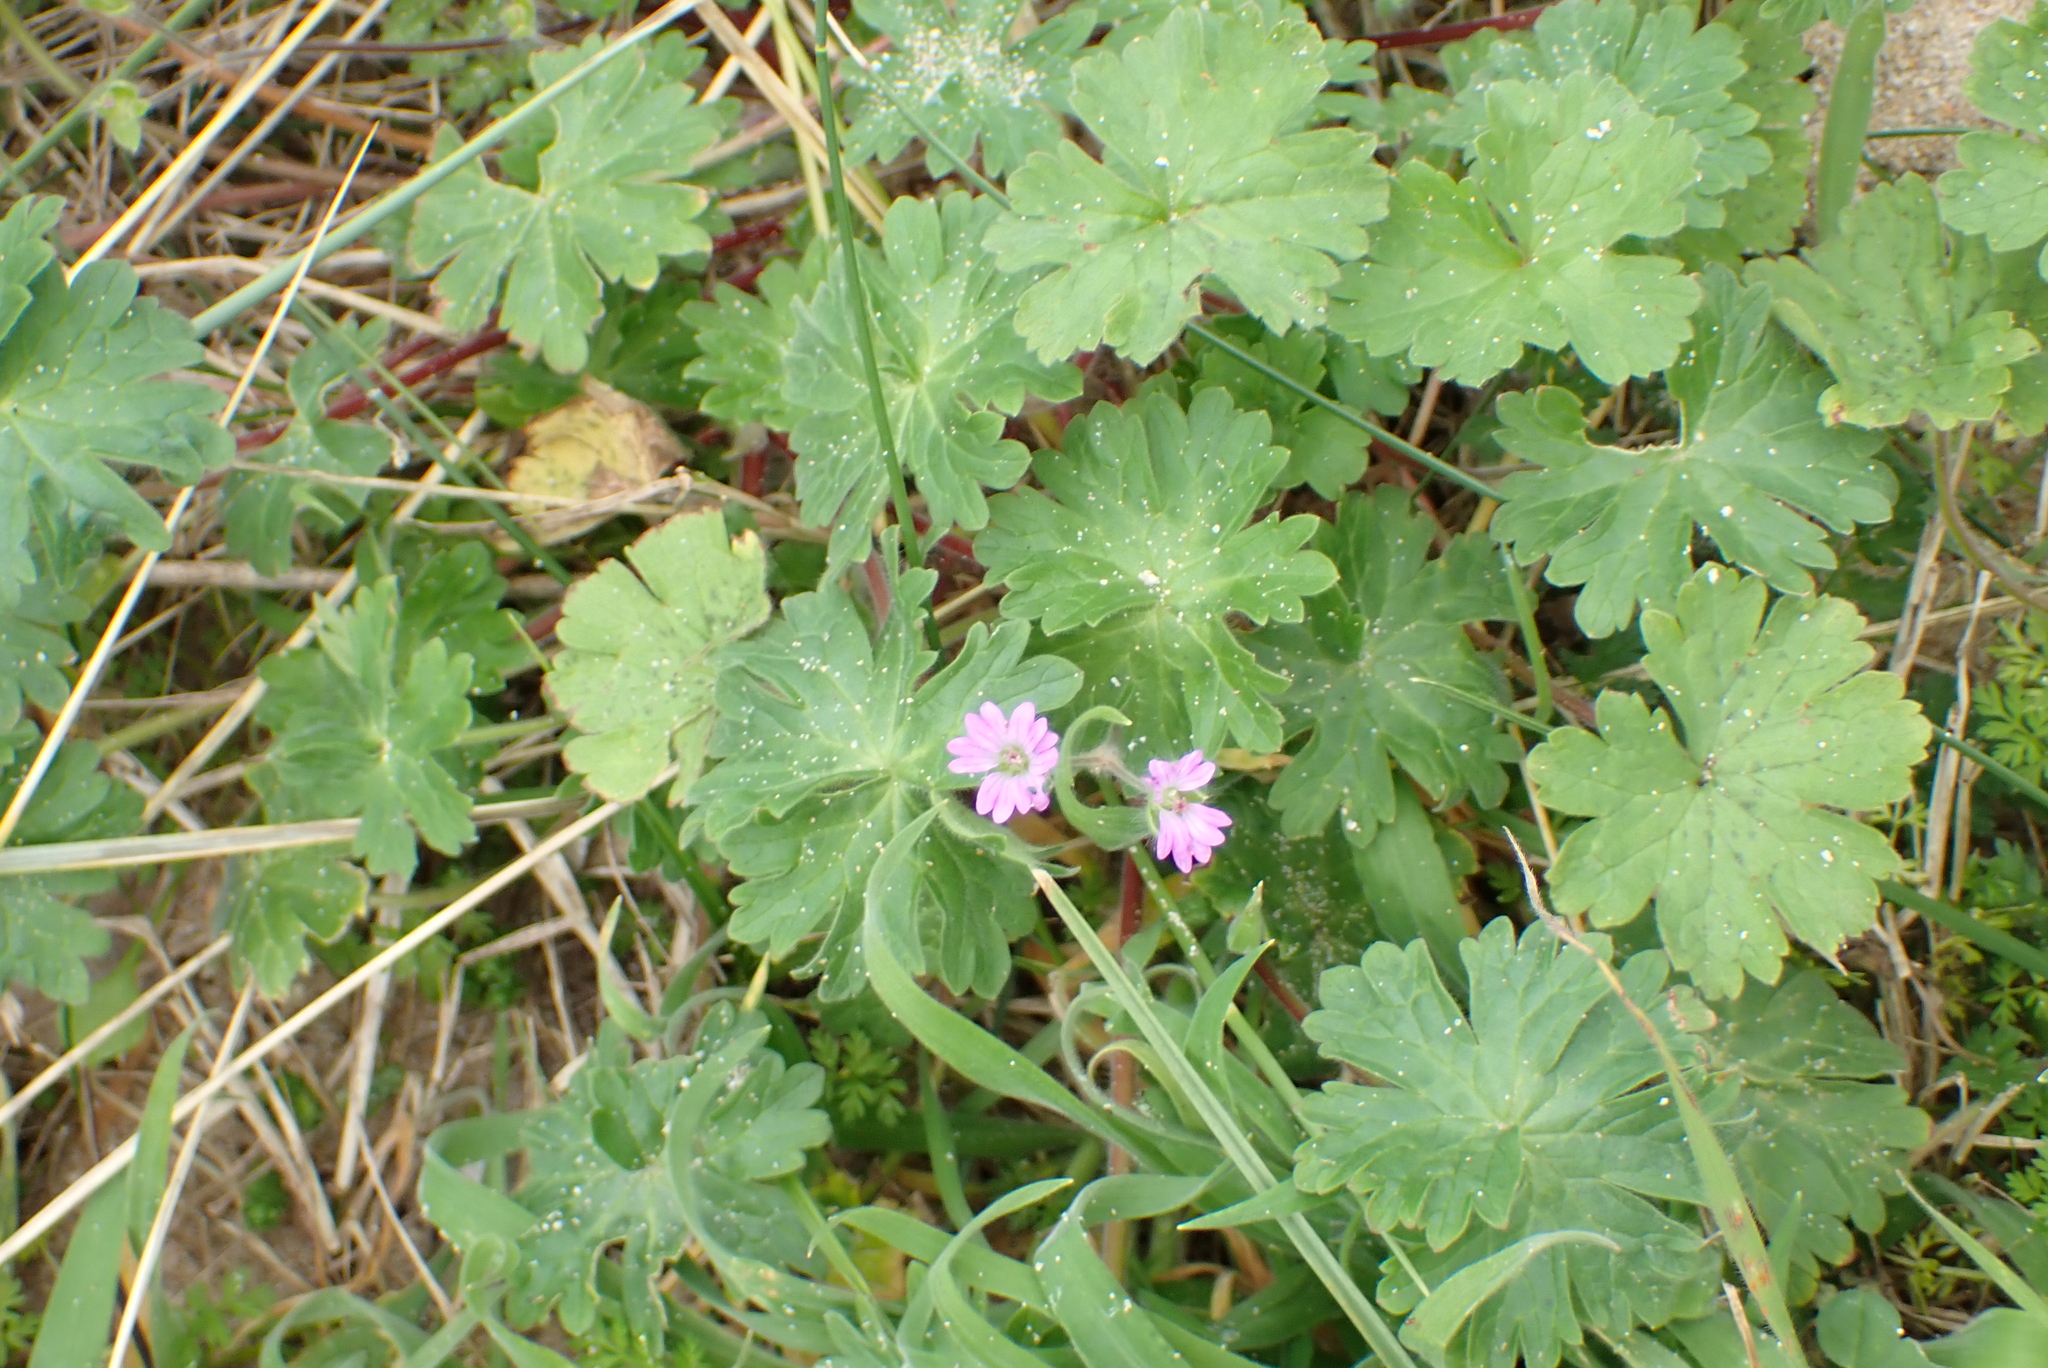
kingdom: Plantae
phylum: Tracheophyta
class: Magnoliopsida
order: Geraniales
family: Geraniaceae
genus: Geranium
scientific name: Geranium molle
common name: Dove's-foot crane's-bill
